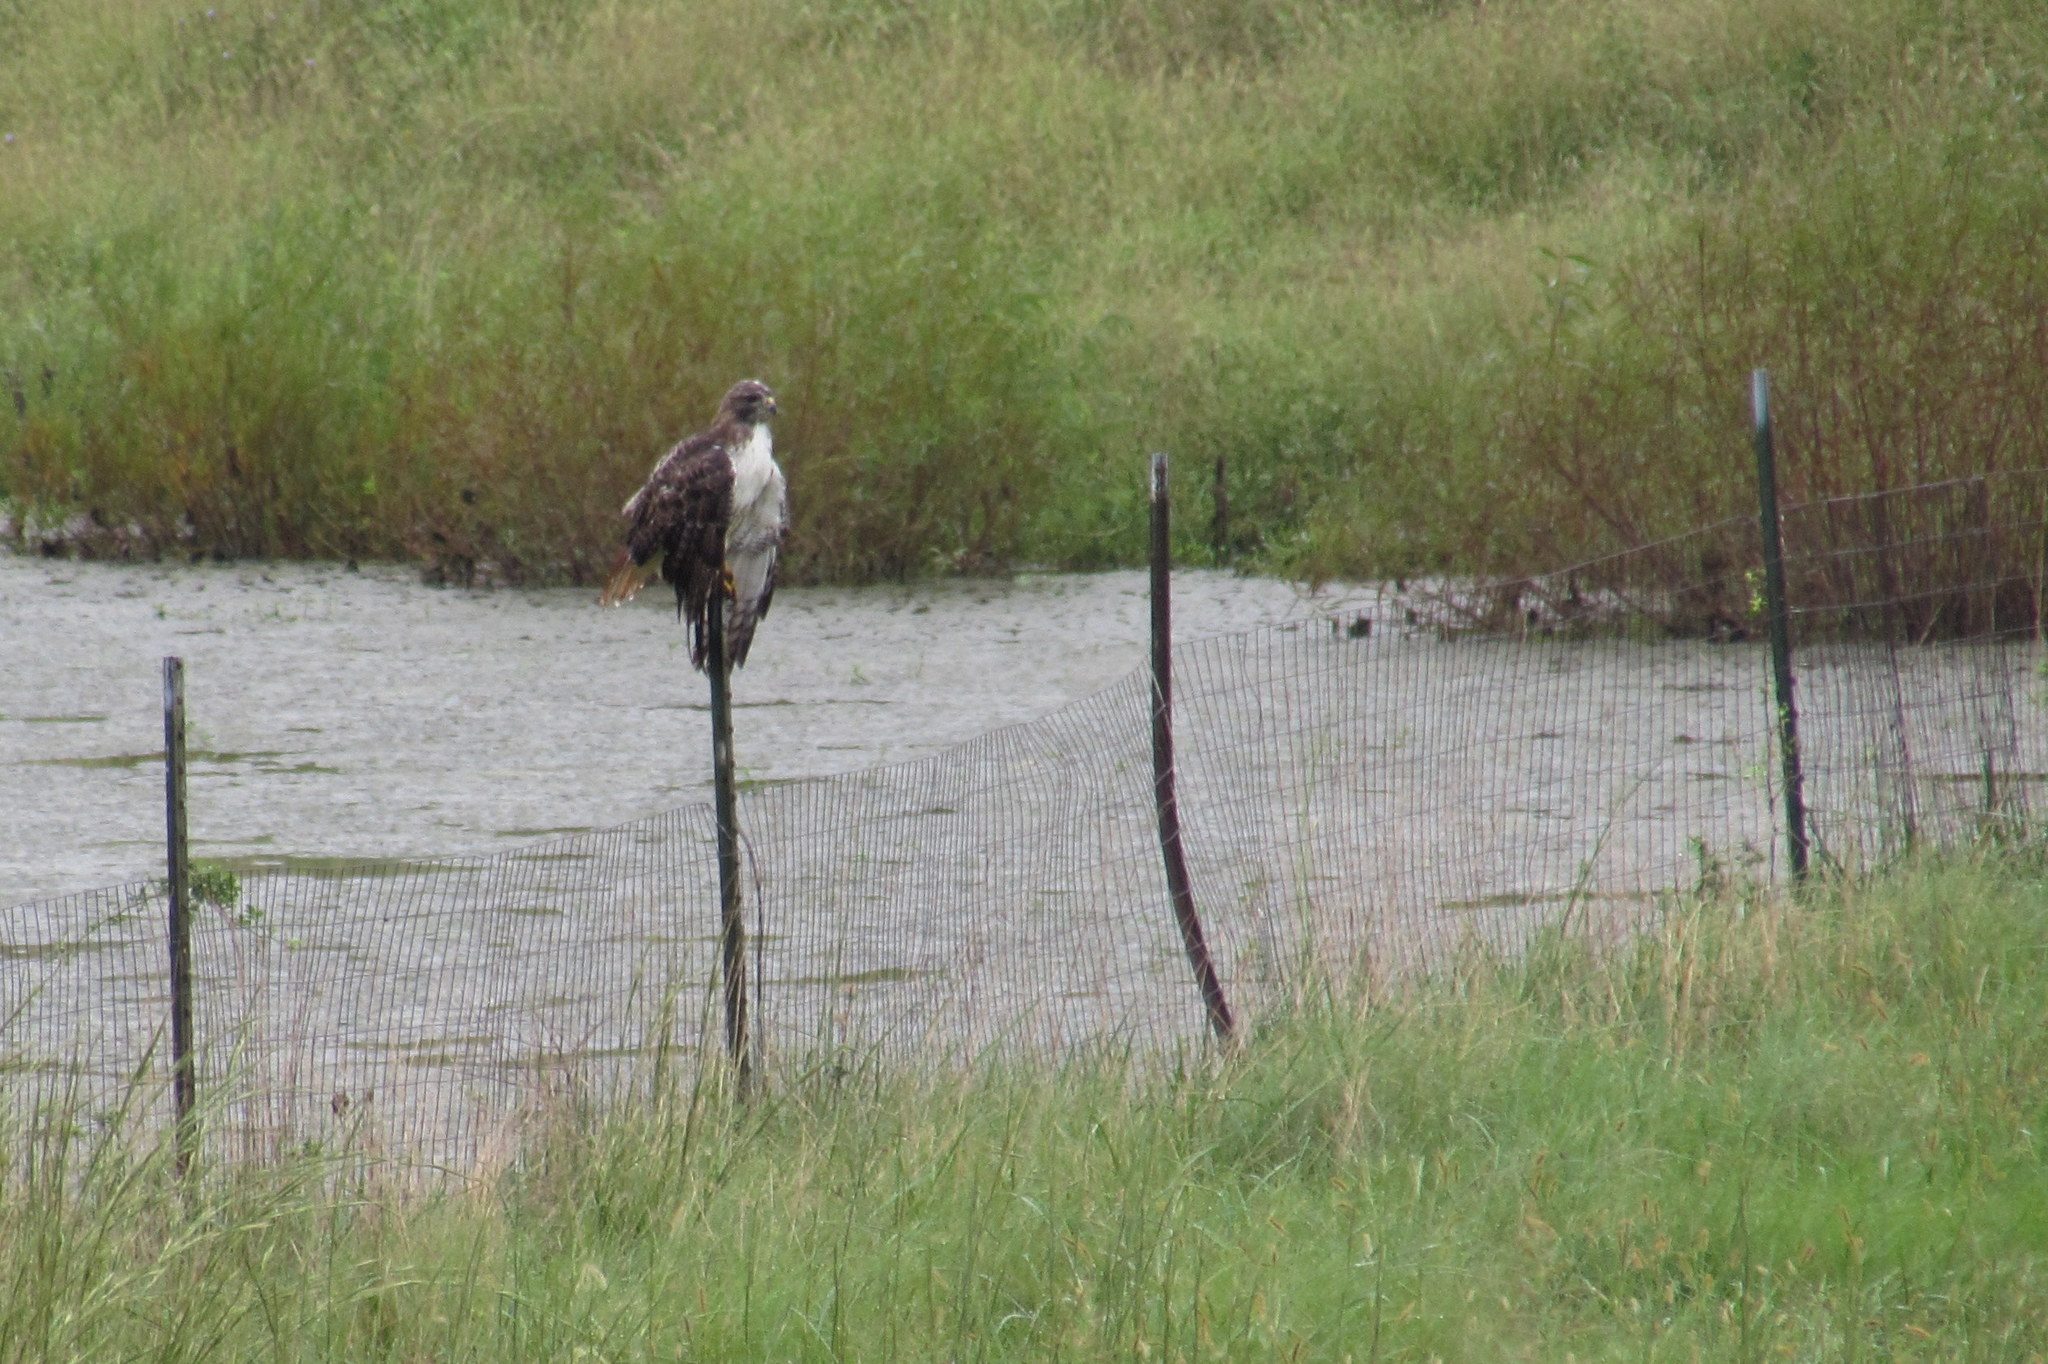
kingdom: Animalia
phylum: Chordata
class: Aves
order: Accipitriformes
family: Accipitridae
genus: Buteo
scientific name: Buteo jamaicensis
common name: Red-tailed hawk
